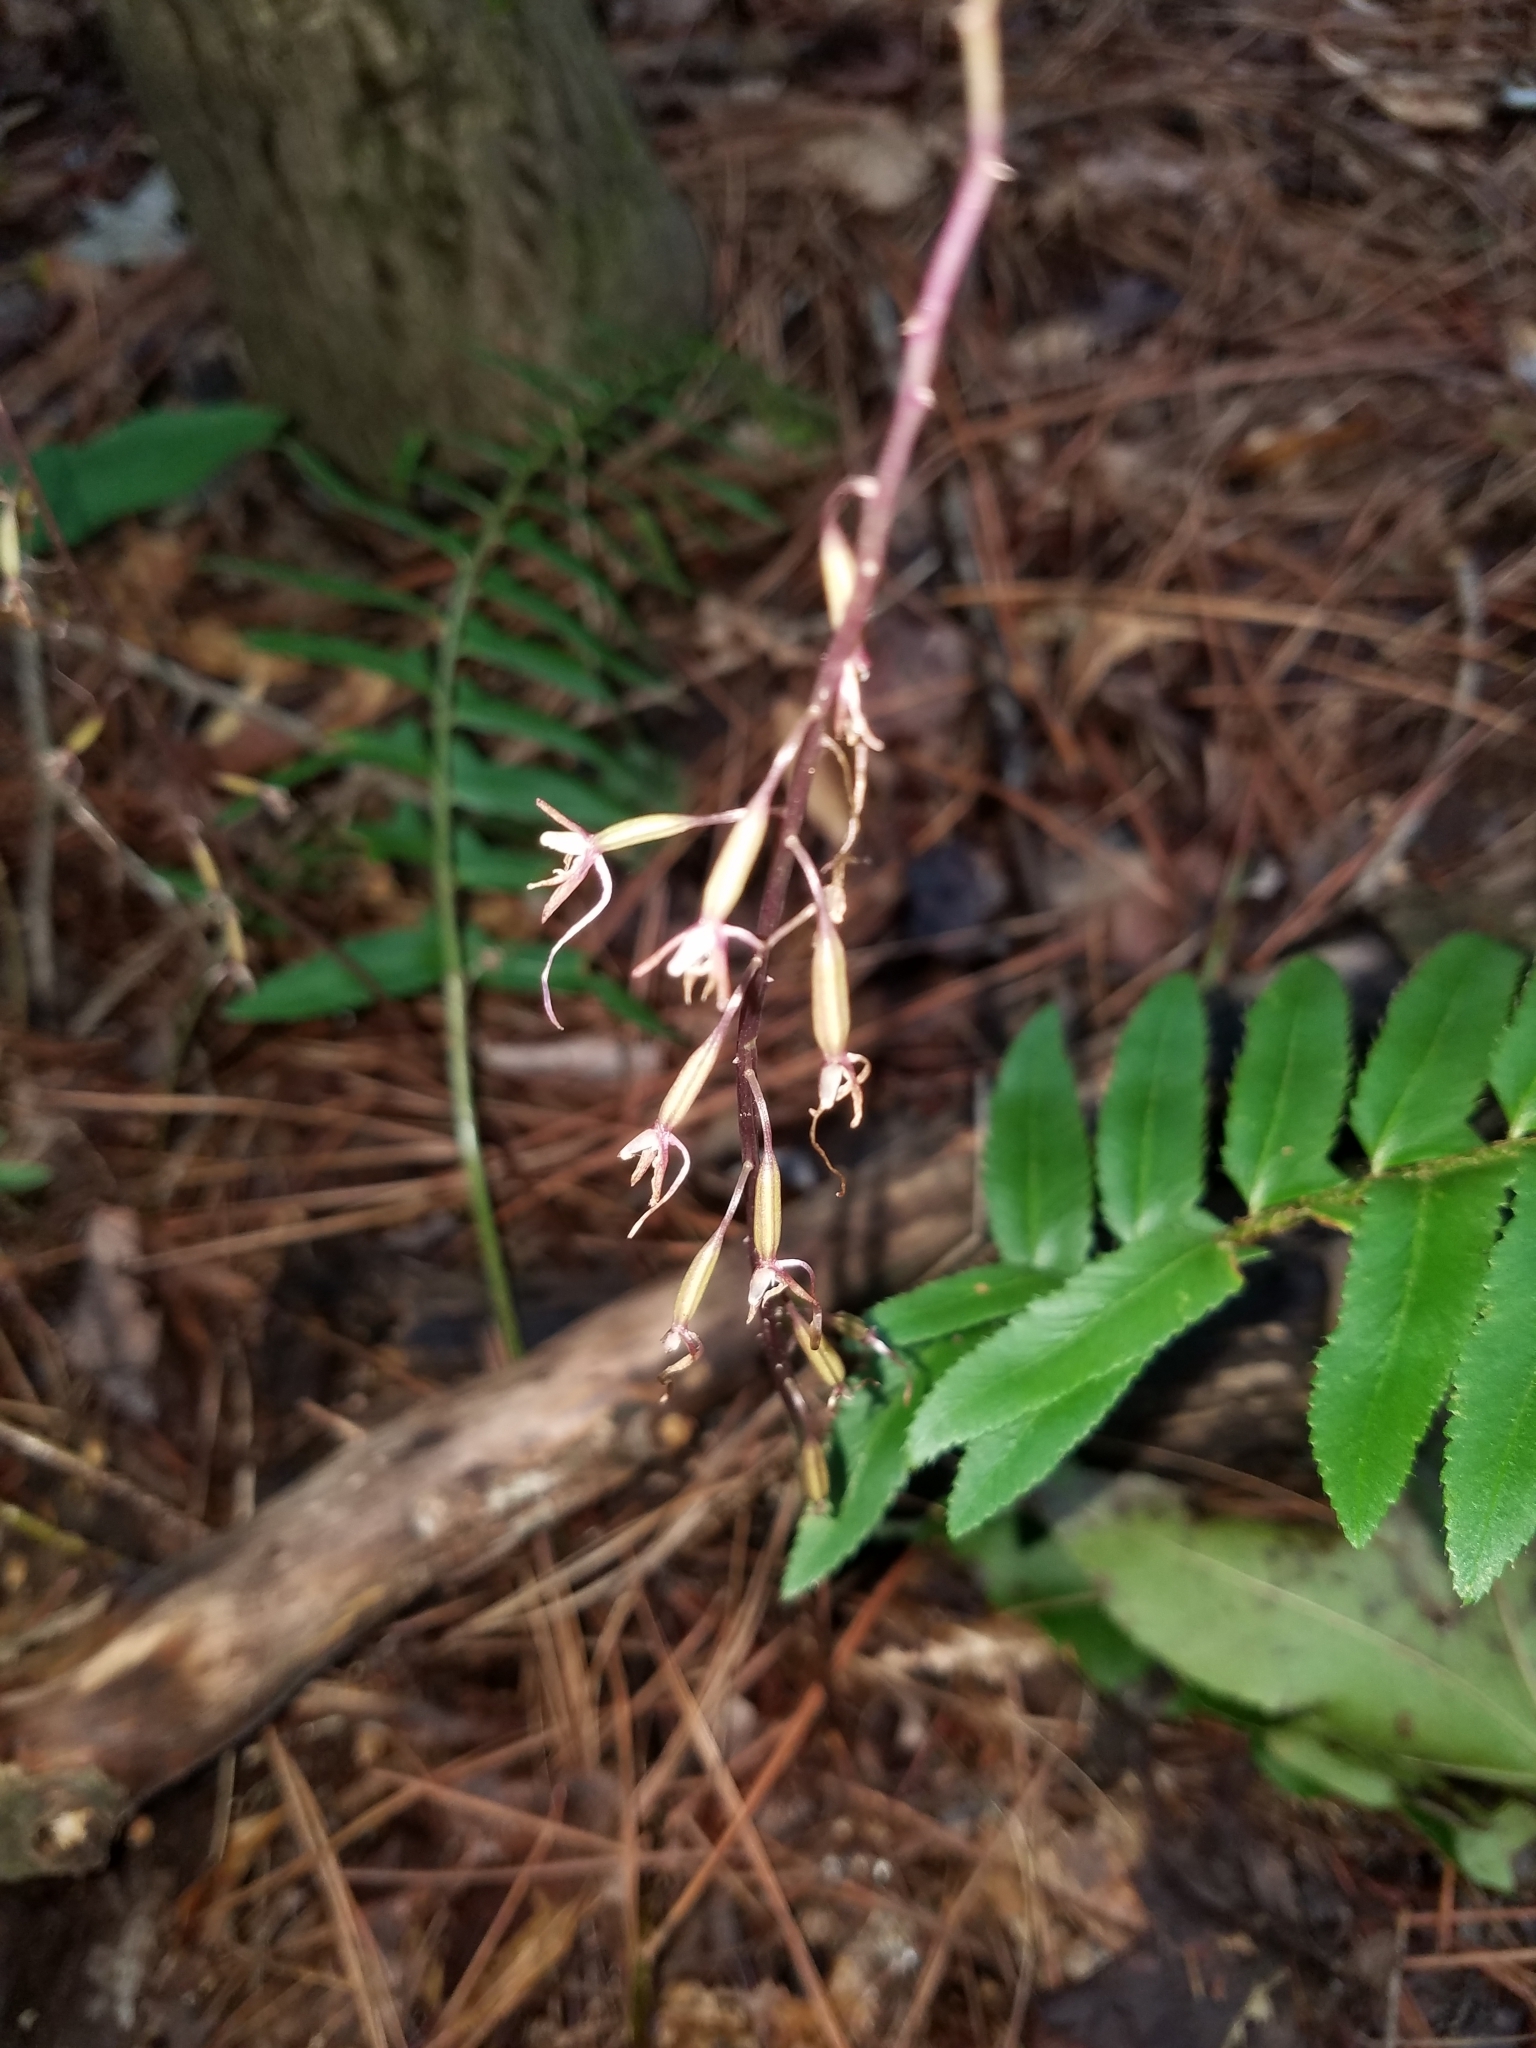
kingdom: Plantae
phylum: Tracheophyta
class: Liliopsida
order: Asparagales
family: Orchidaceae
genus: Tipularia
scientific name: Tipularia discolor
